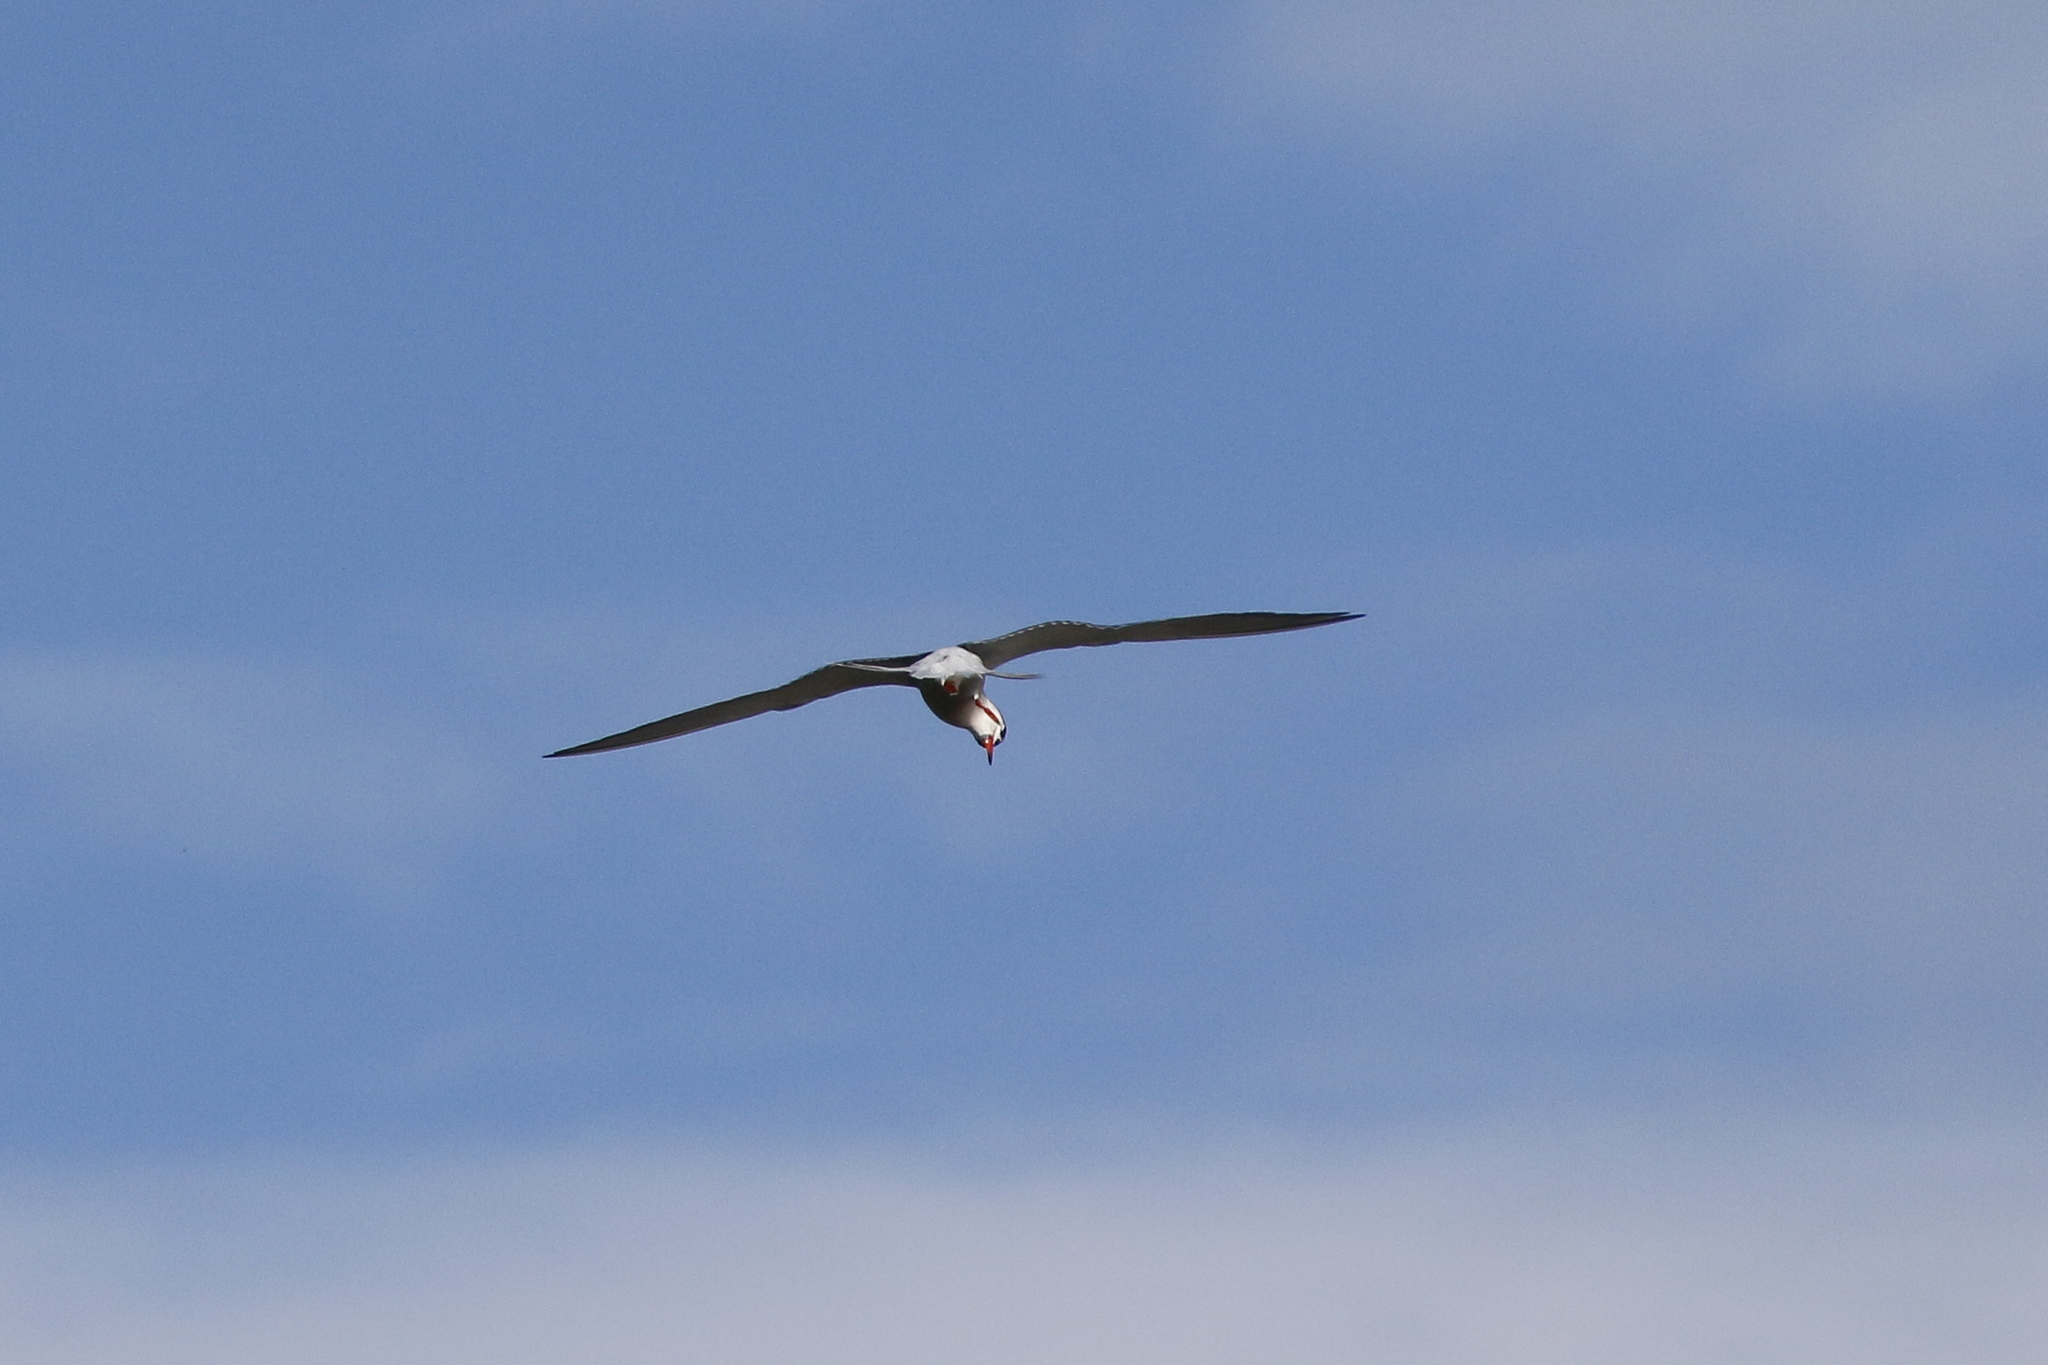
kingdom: Animalia
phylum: Chordata
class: Aves
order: Charadriiformes
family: Laridae
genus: Sterna
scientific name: Sterna hirundo
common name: Common tern
